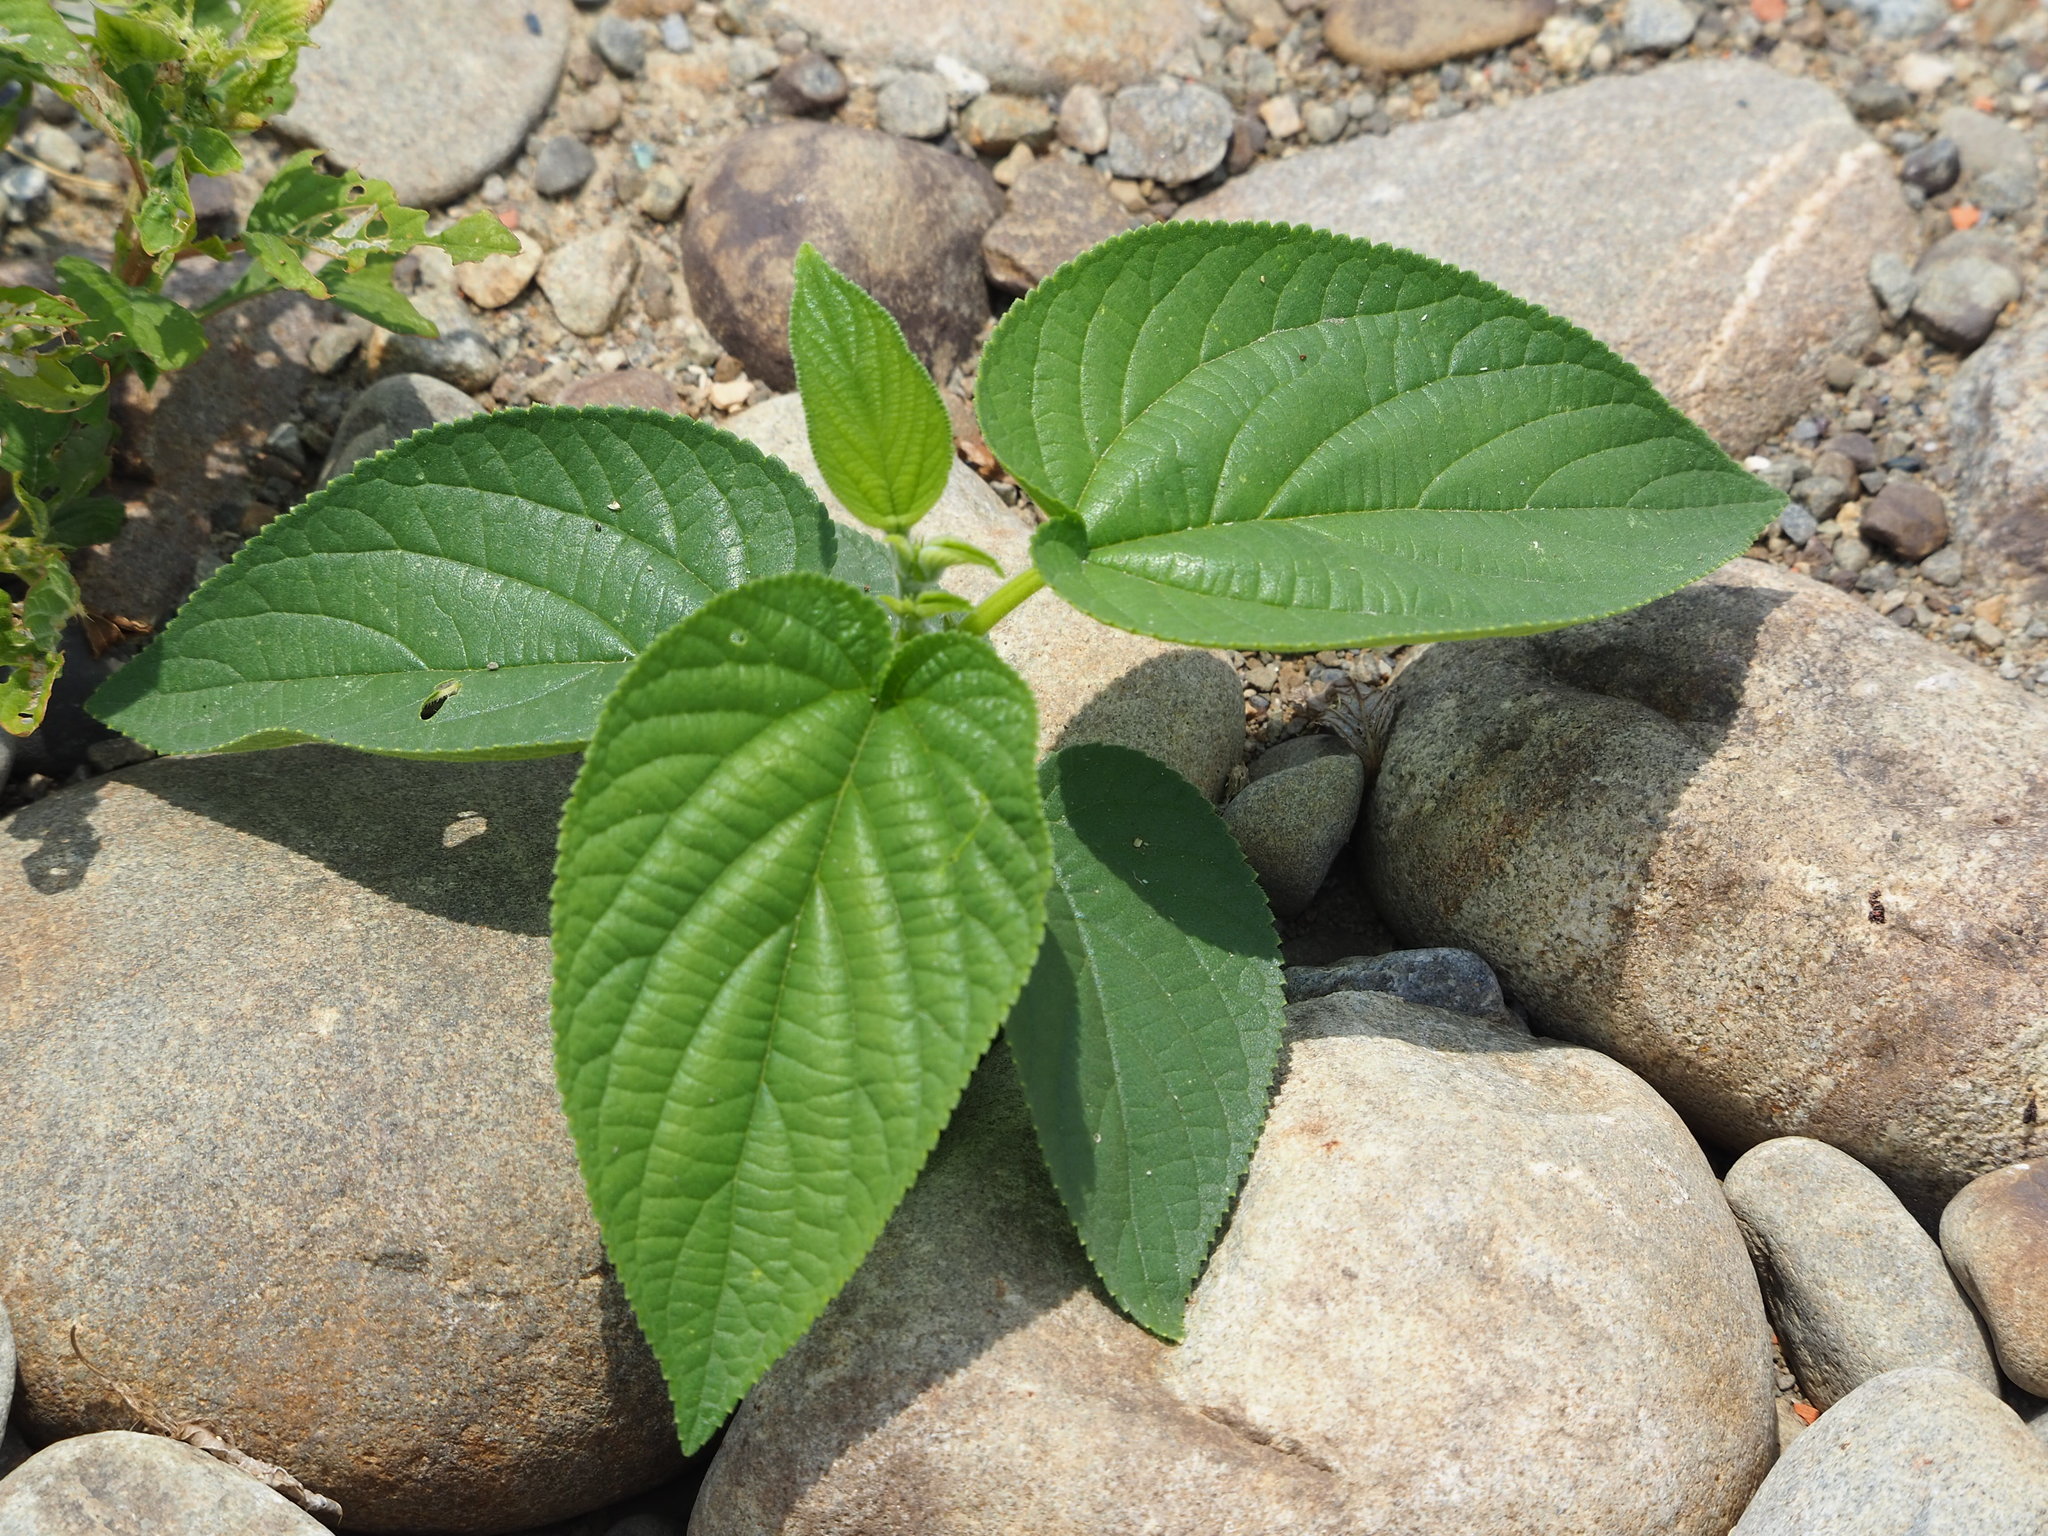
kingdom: Plantae
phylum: Tracheophyta
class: Magnoliopsida
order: Rosales
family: Cannabaceae
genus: Trema
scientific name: Trema orientale
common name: Indian charcoal tree
